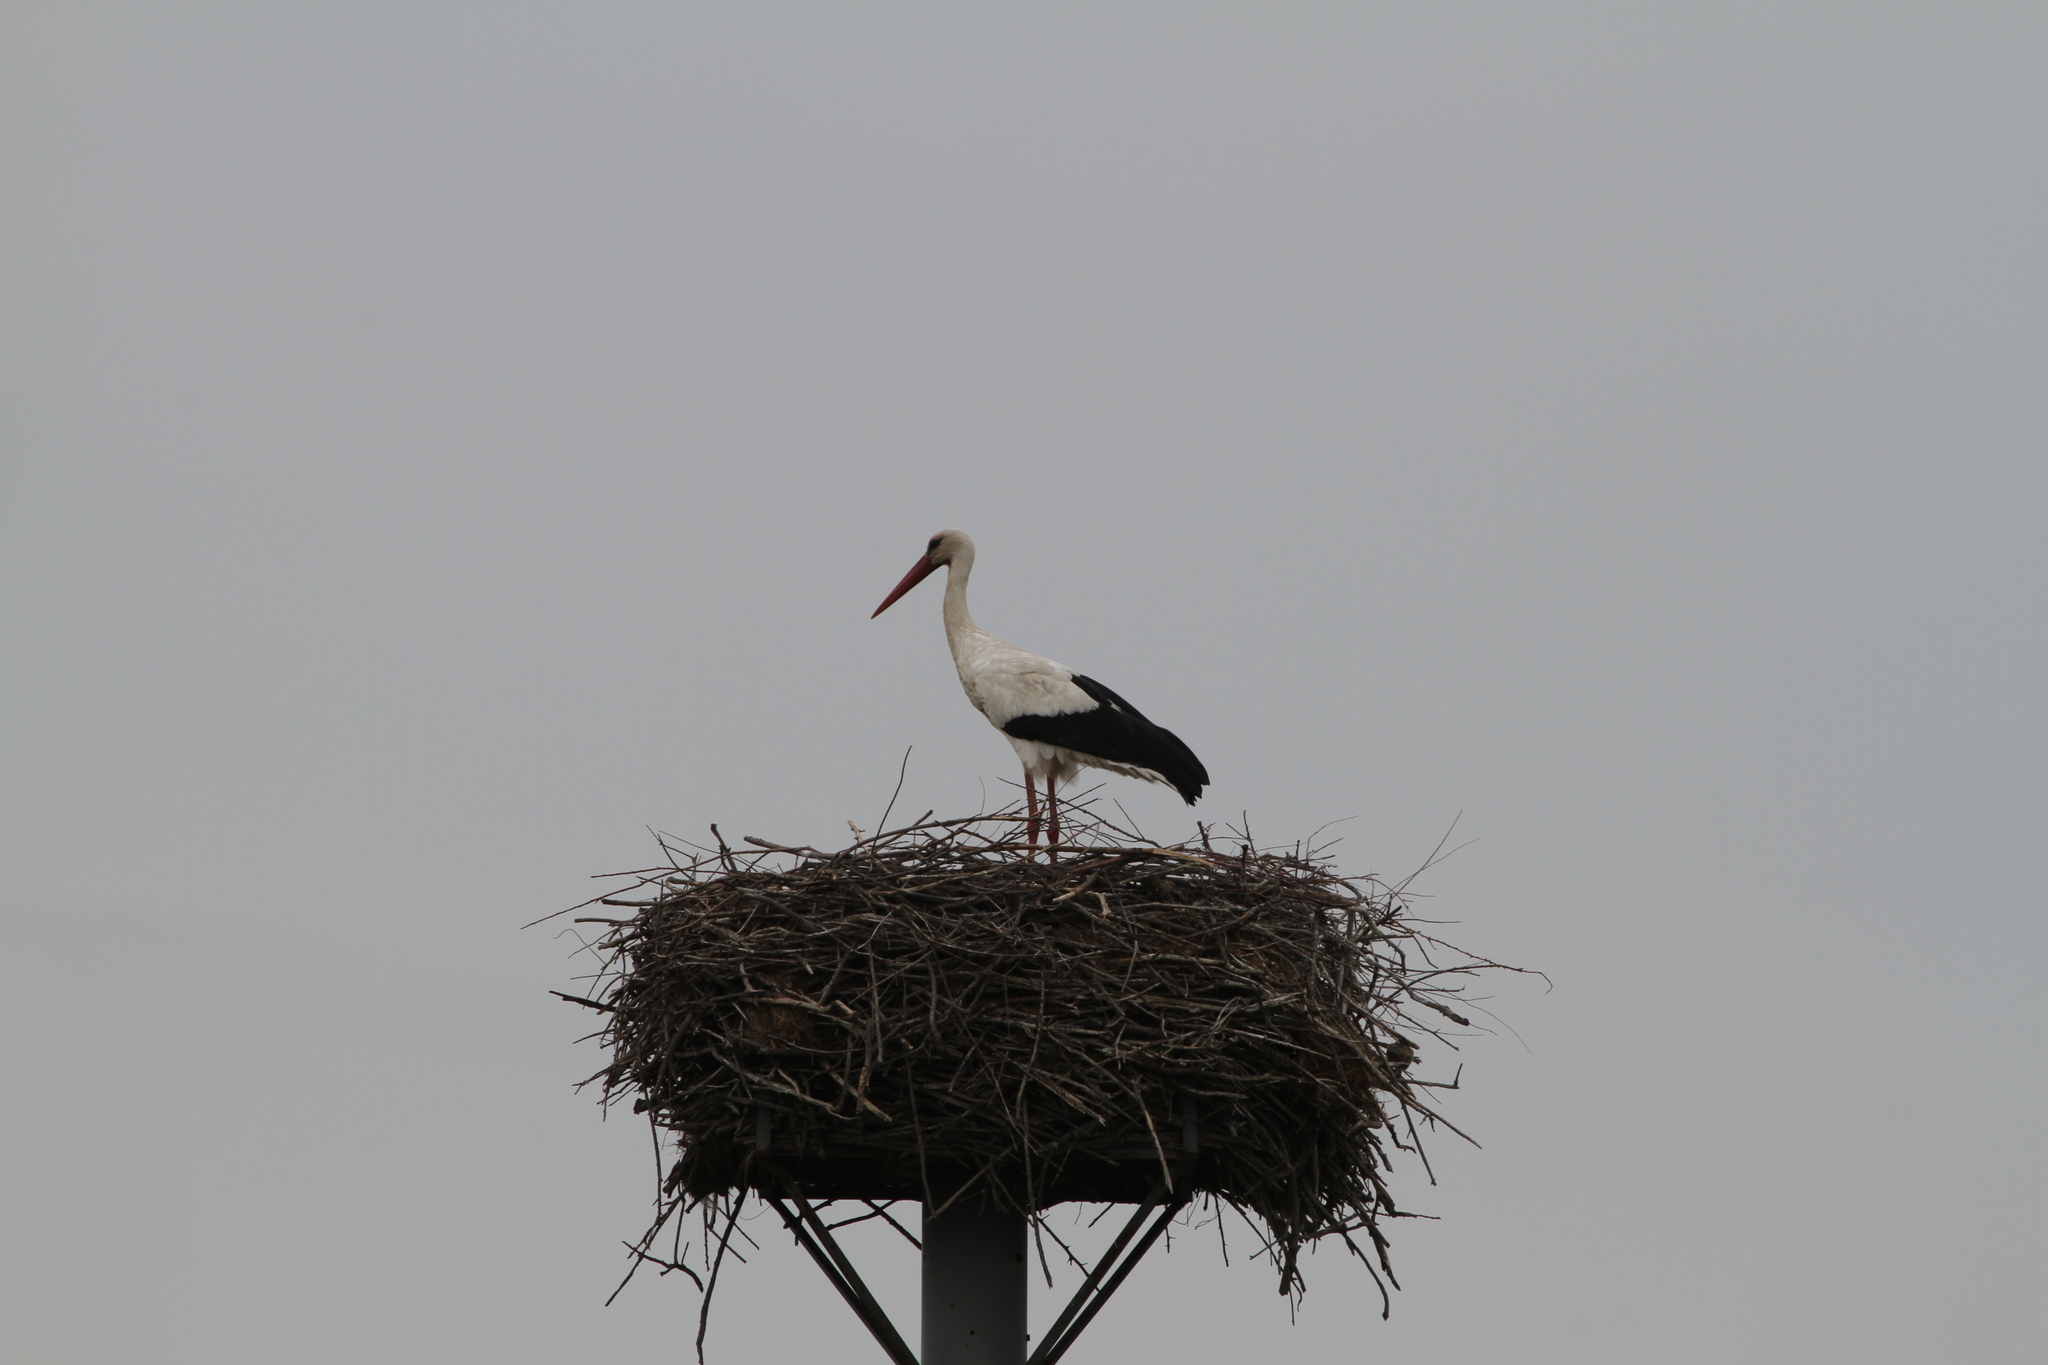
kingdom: Animalia
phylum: Chordata
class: Aves
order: Ciconiiformes
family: Ciconiidae
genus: Ciconia
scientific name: Ciconia ciconia
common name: White stork
